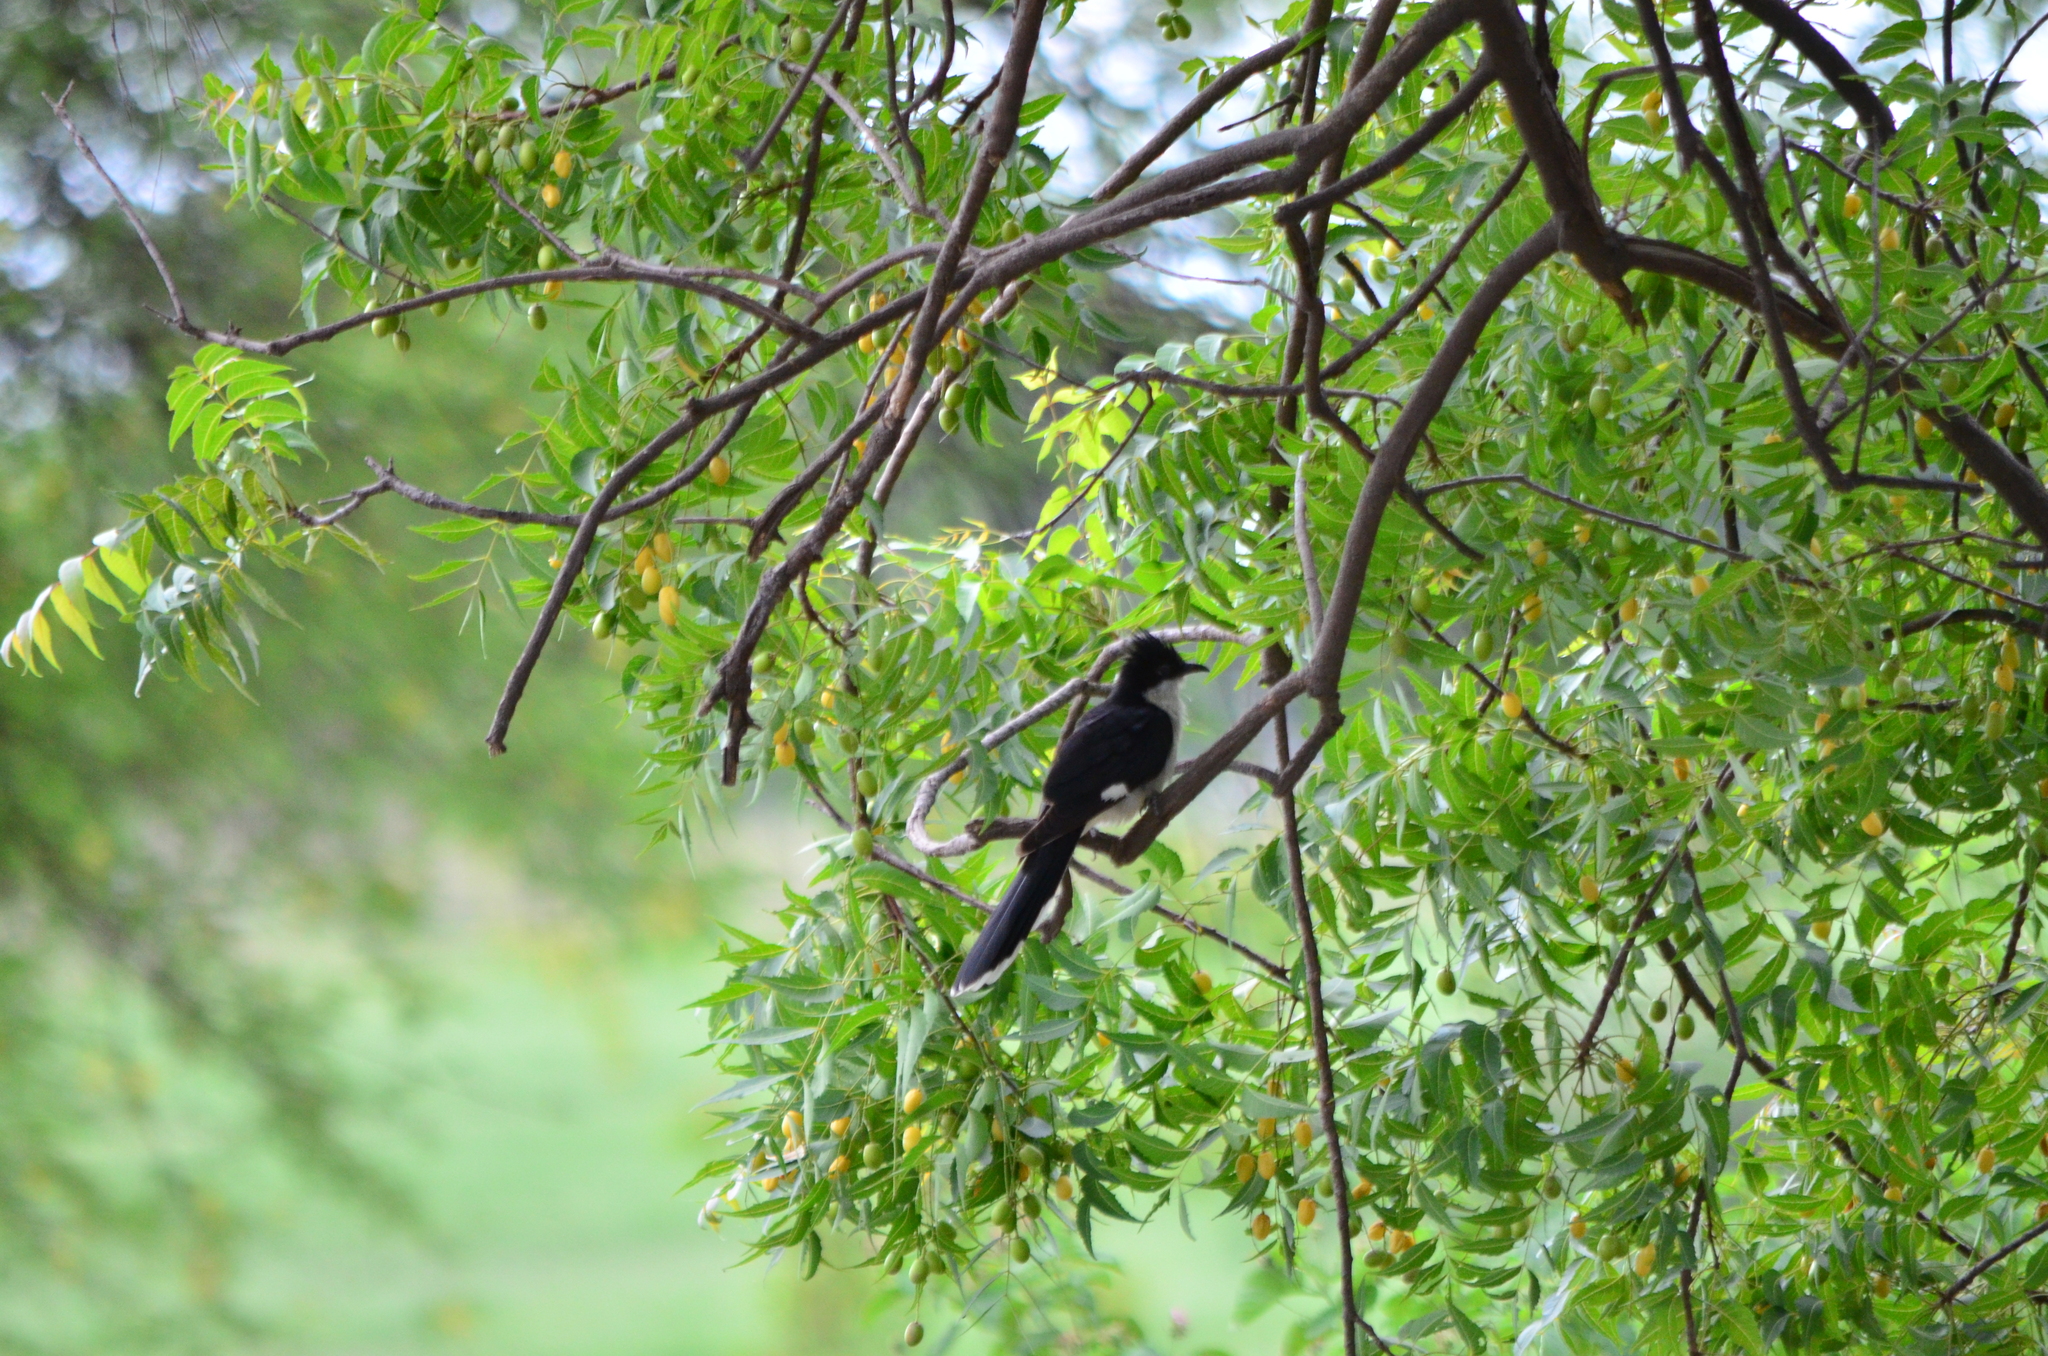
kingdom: Animalia
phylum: Chordata
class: Aves
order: Cuculiformes
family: Cuculidae
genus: Clamator
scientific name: Clamator jacobinus
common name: Jacobin cuckoo
